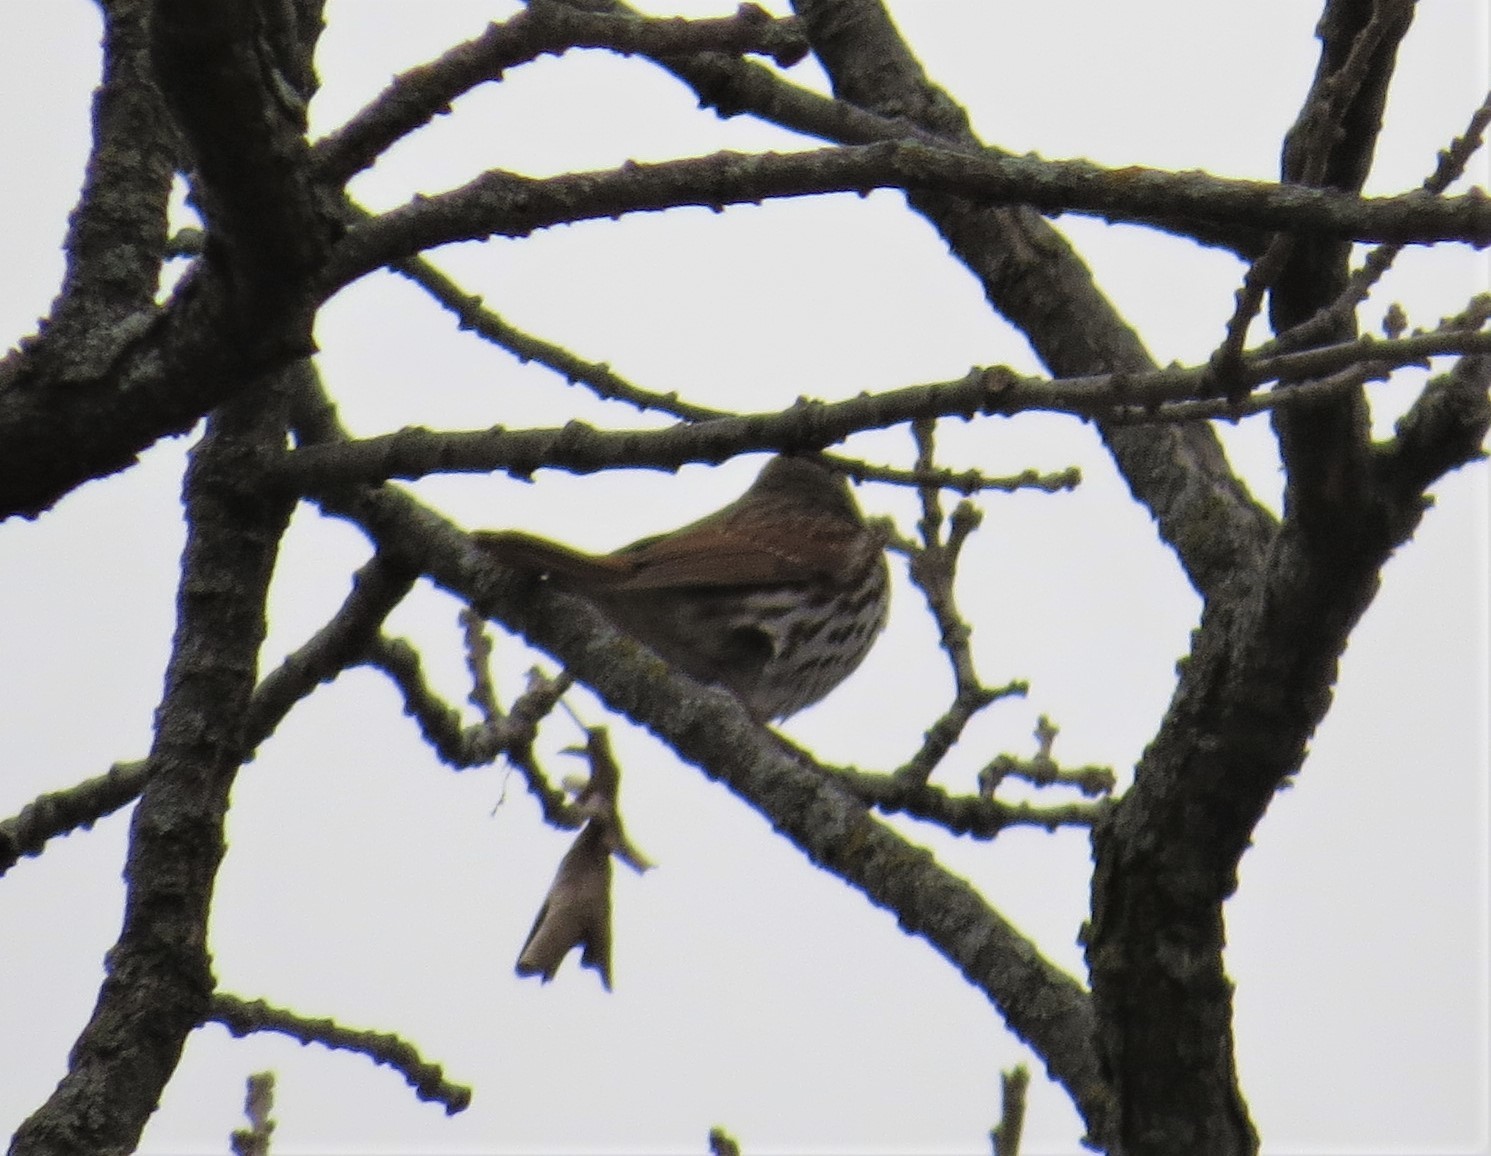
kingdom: Animalia
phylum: Chordata
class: Aves
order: Passeriformes
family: Passerellidae
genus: Passerella
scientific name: Passerella iliaca
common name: Fox sparrow
